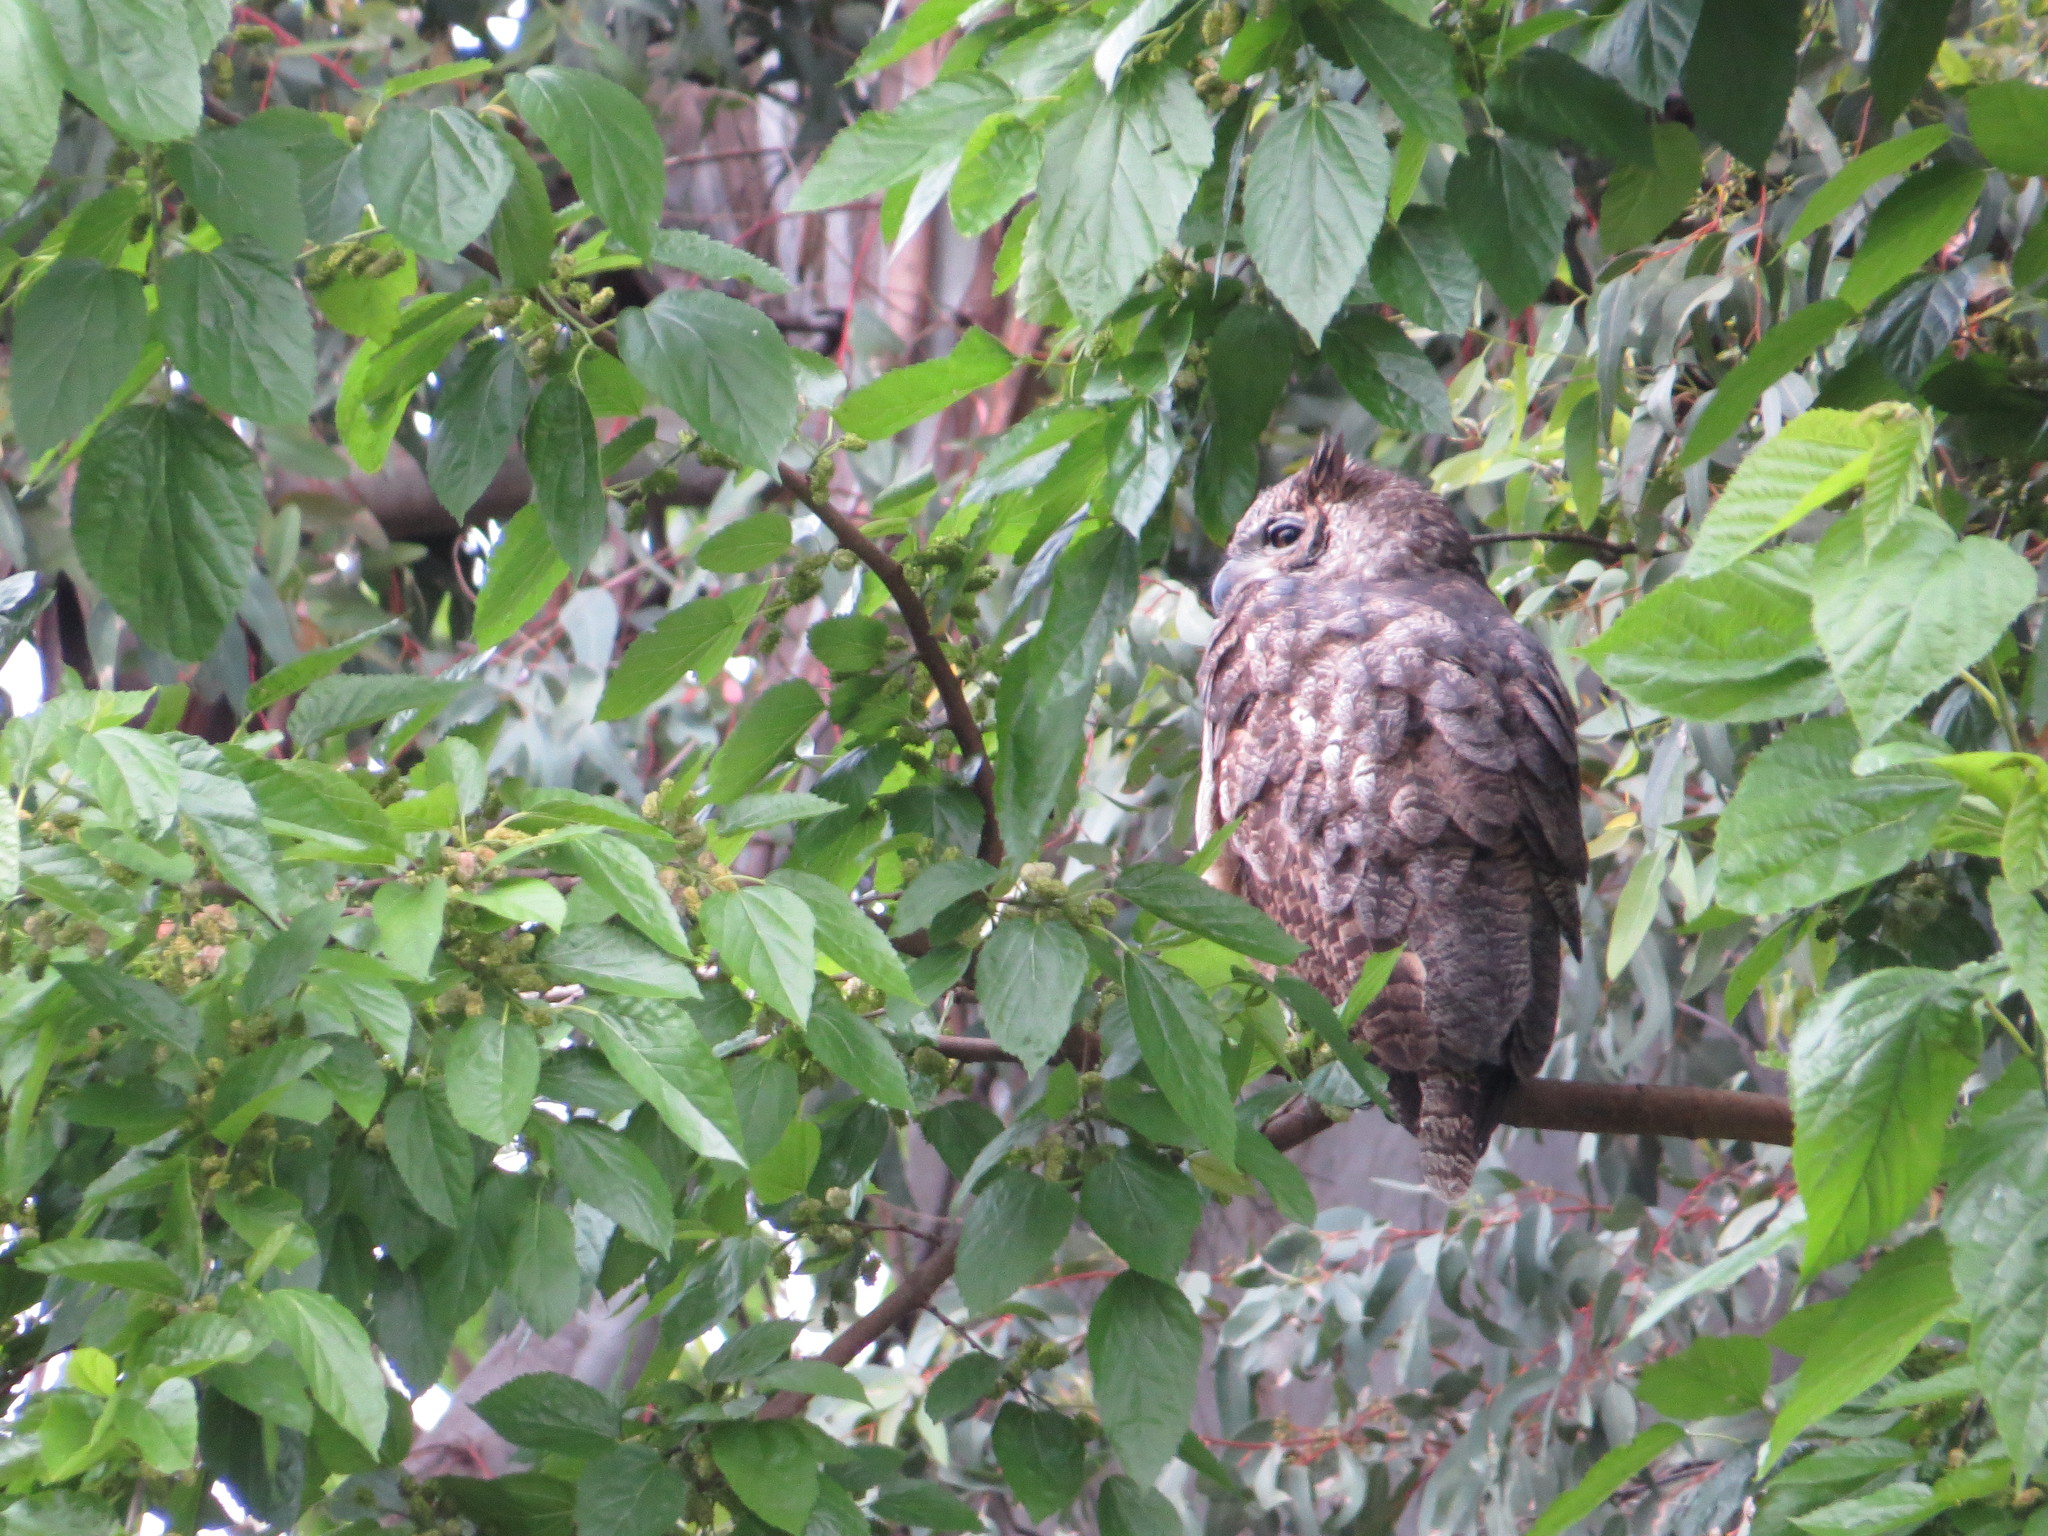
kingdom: Animalia
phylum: Chordata
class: Aves
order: Strigiformes
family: Strigidae
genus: Bubo
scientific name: Bubo virginianus
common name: Great horned owl
